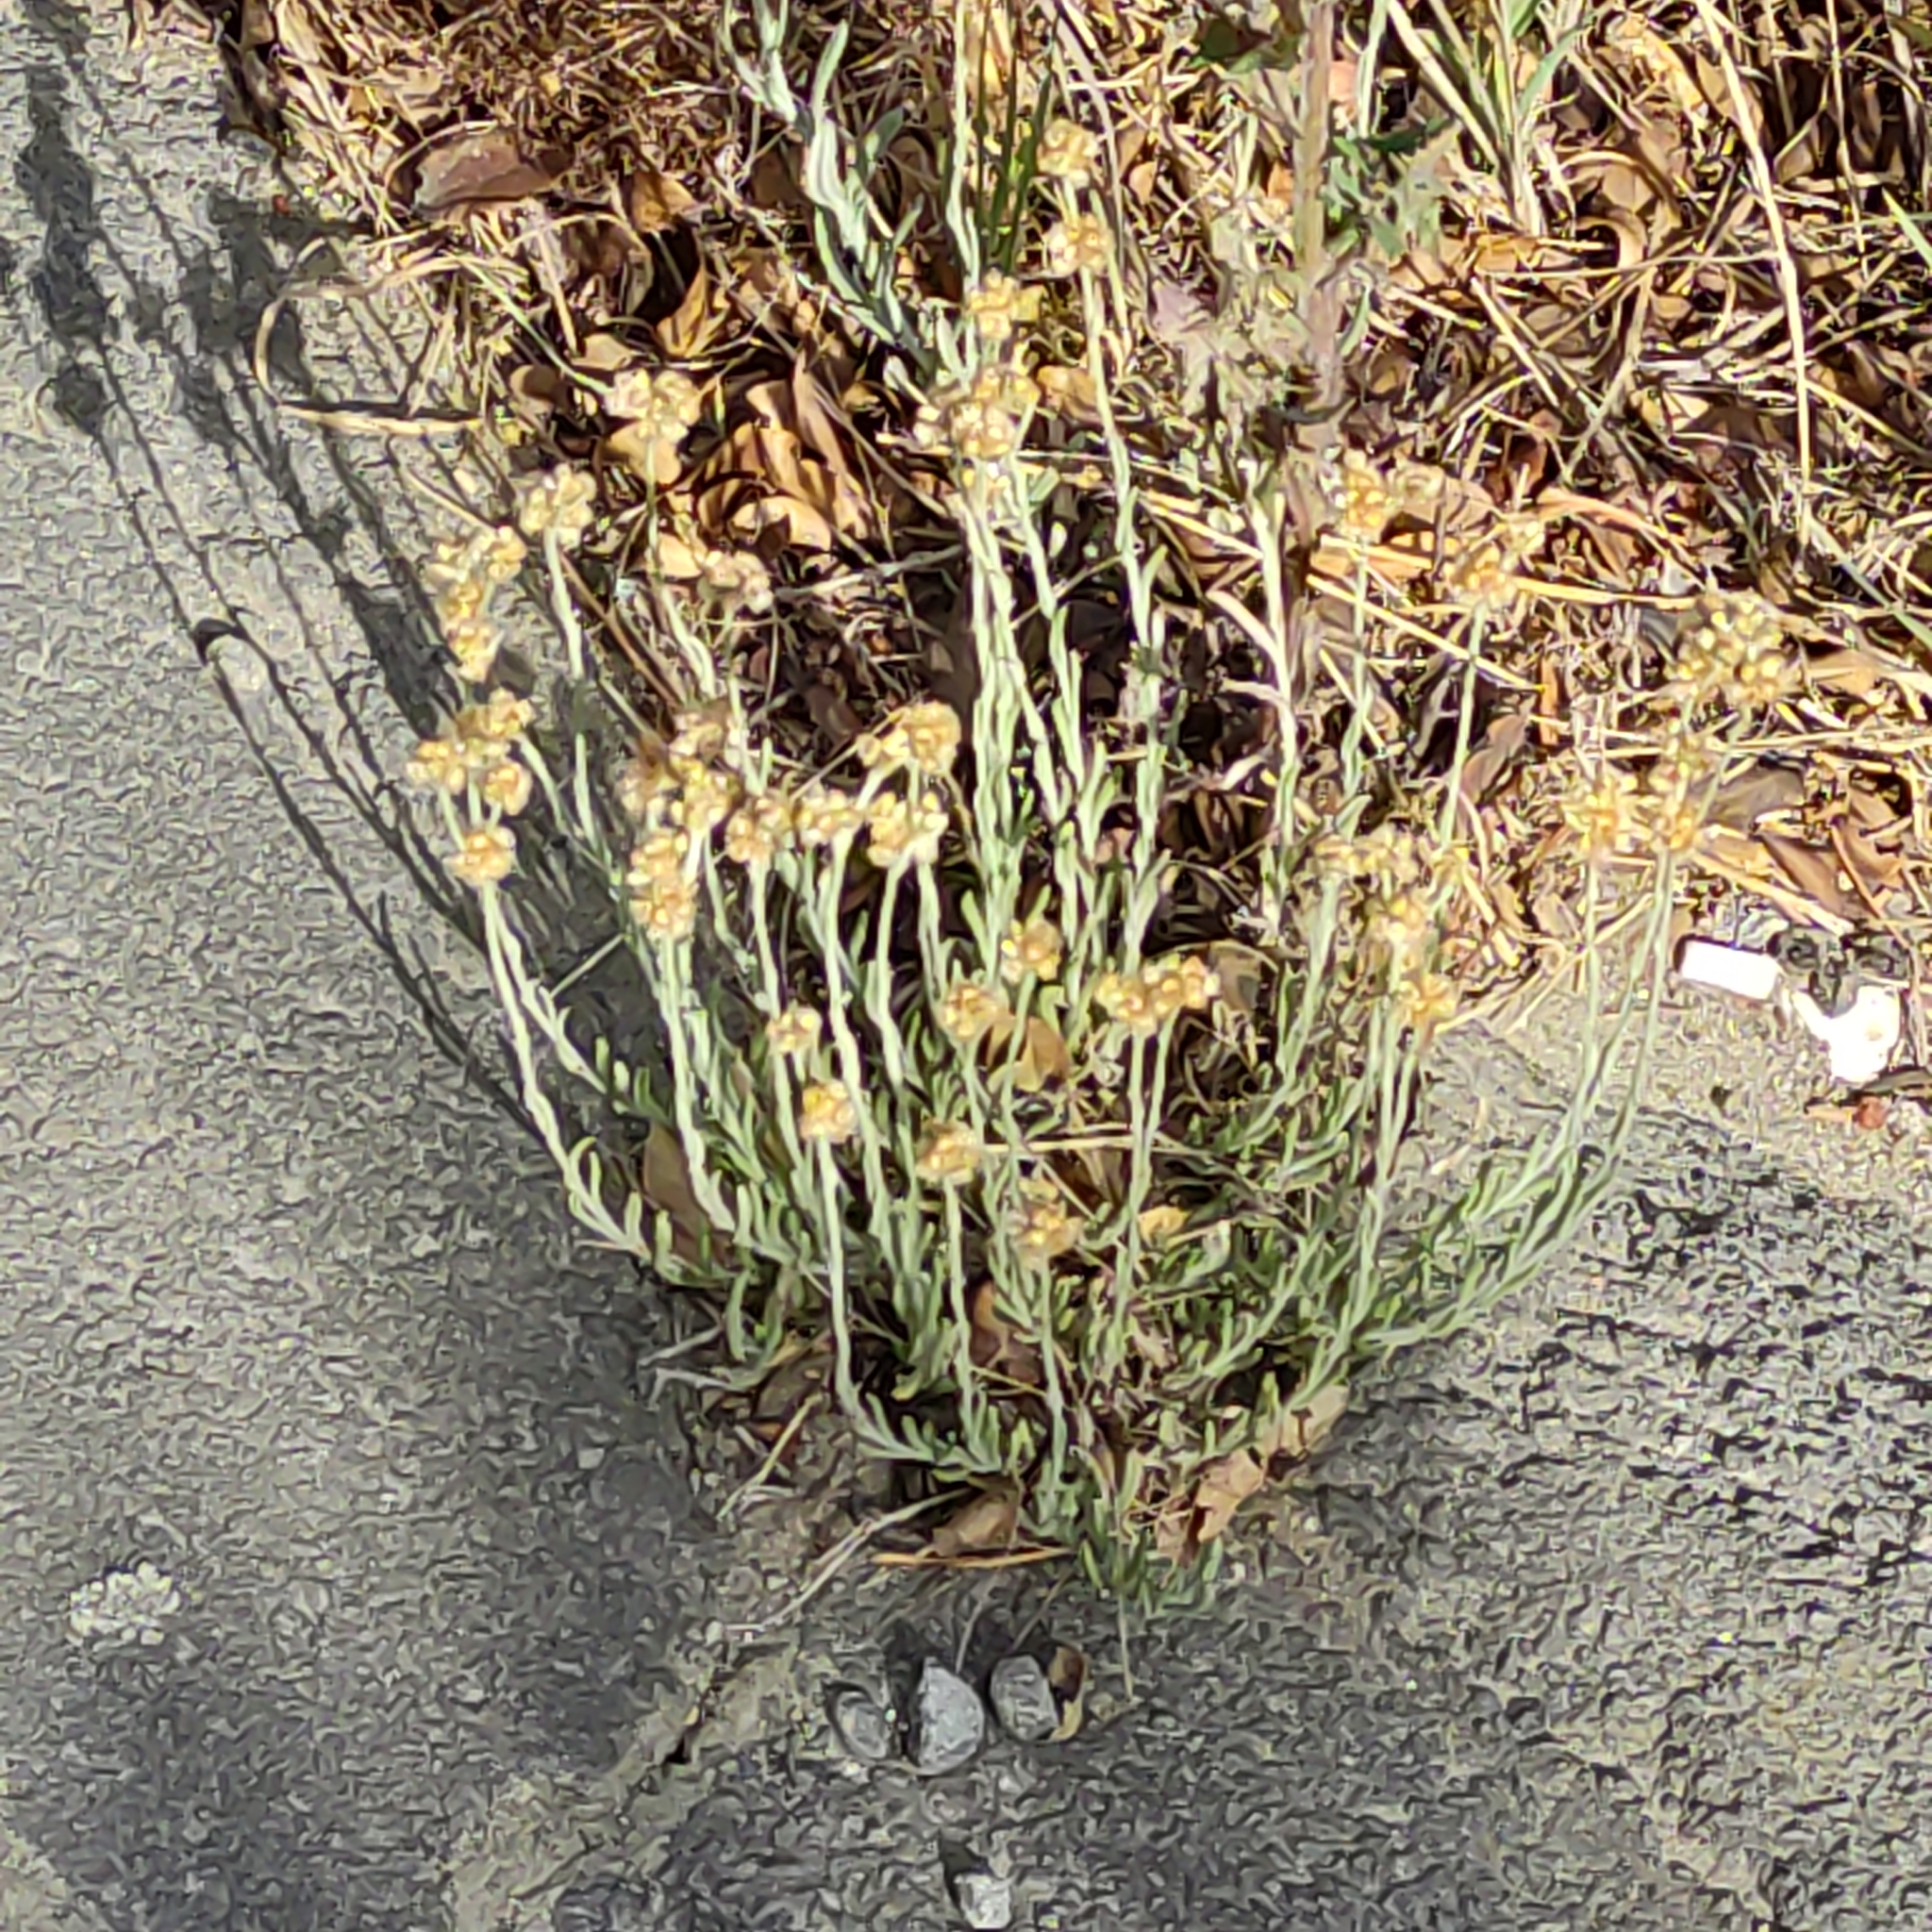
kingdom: Plantae
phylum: Tracheophyta
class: Magnoliopsida
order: Asterales
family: Asteraceae
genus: Helichrysum
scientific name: Helichrysum luteoalbum
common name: Daisy
